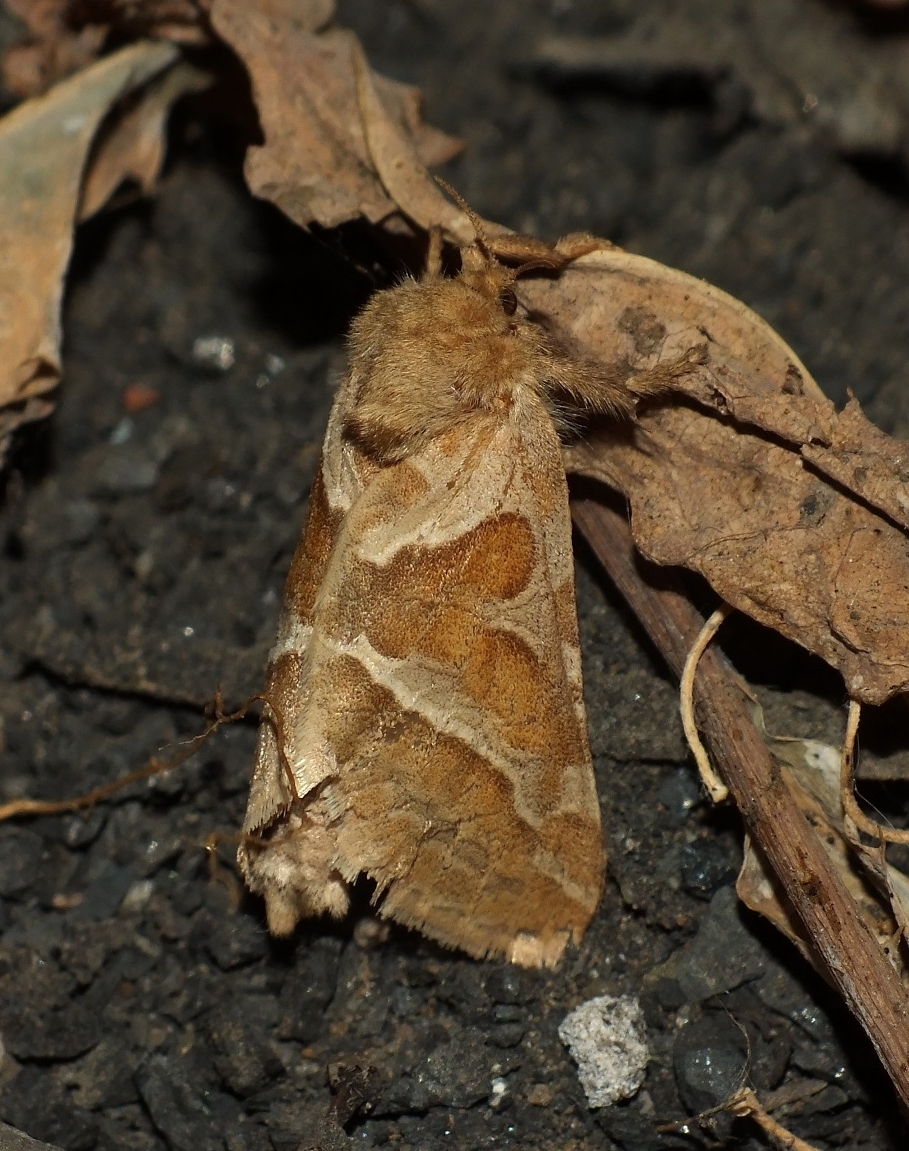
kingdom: Animalia
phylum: Arthropoda
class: Insecta
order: Lepidoptera
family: Hepialidae
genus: Triodia
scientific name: Triodia sylvina
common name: Orange swift
